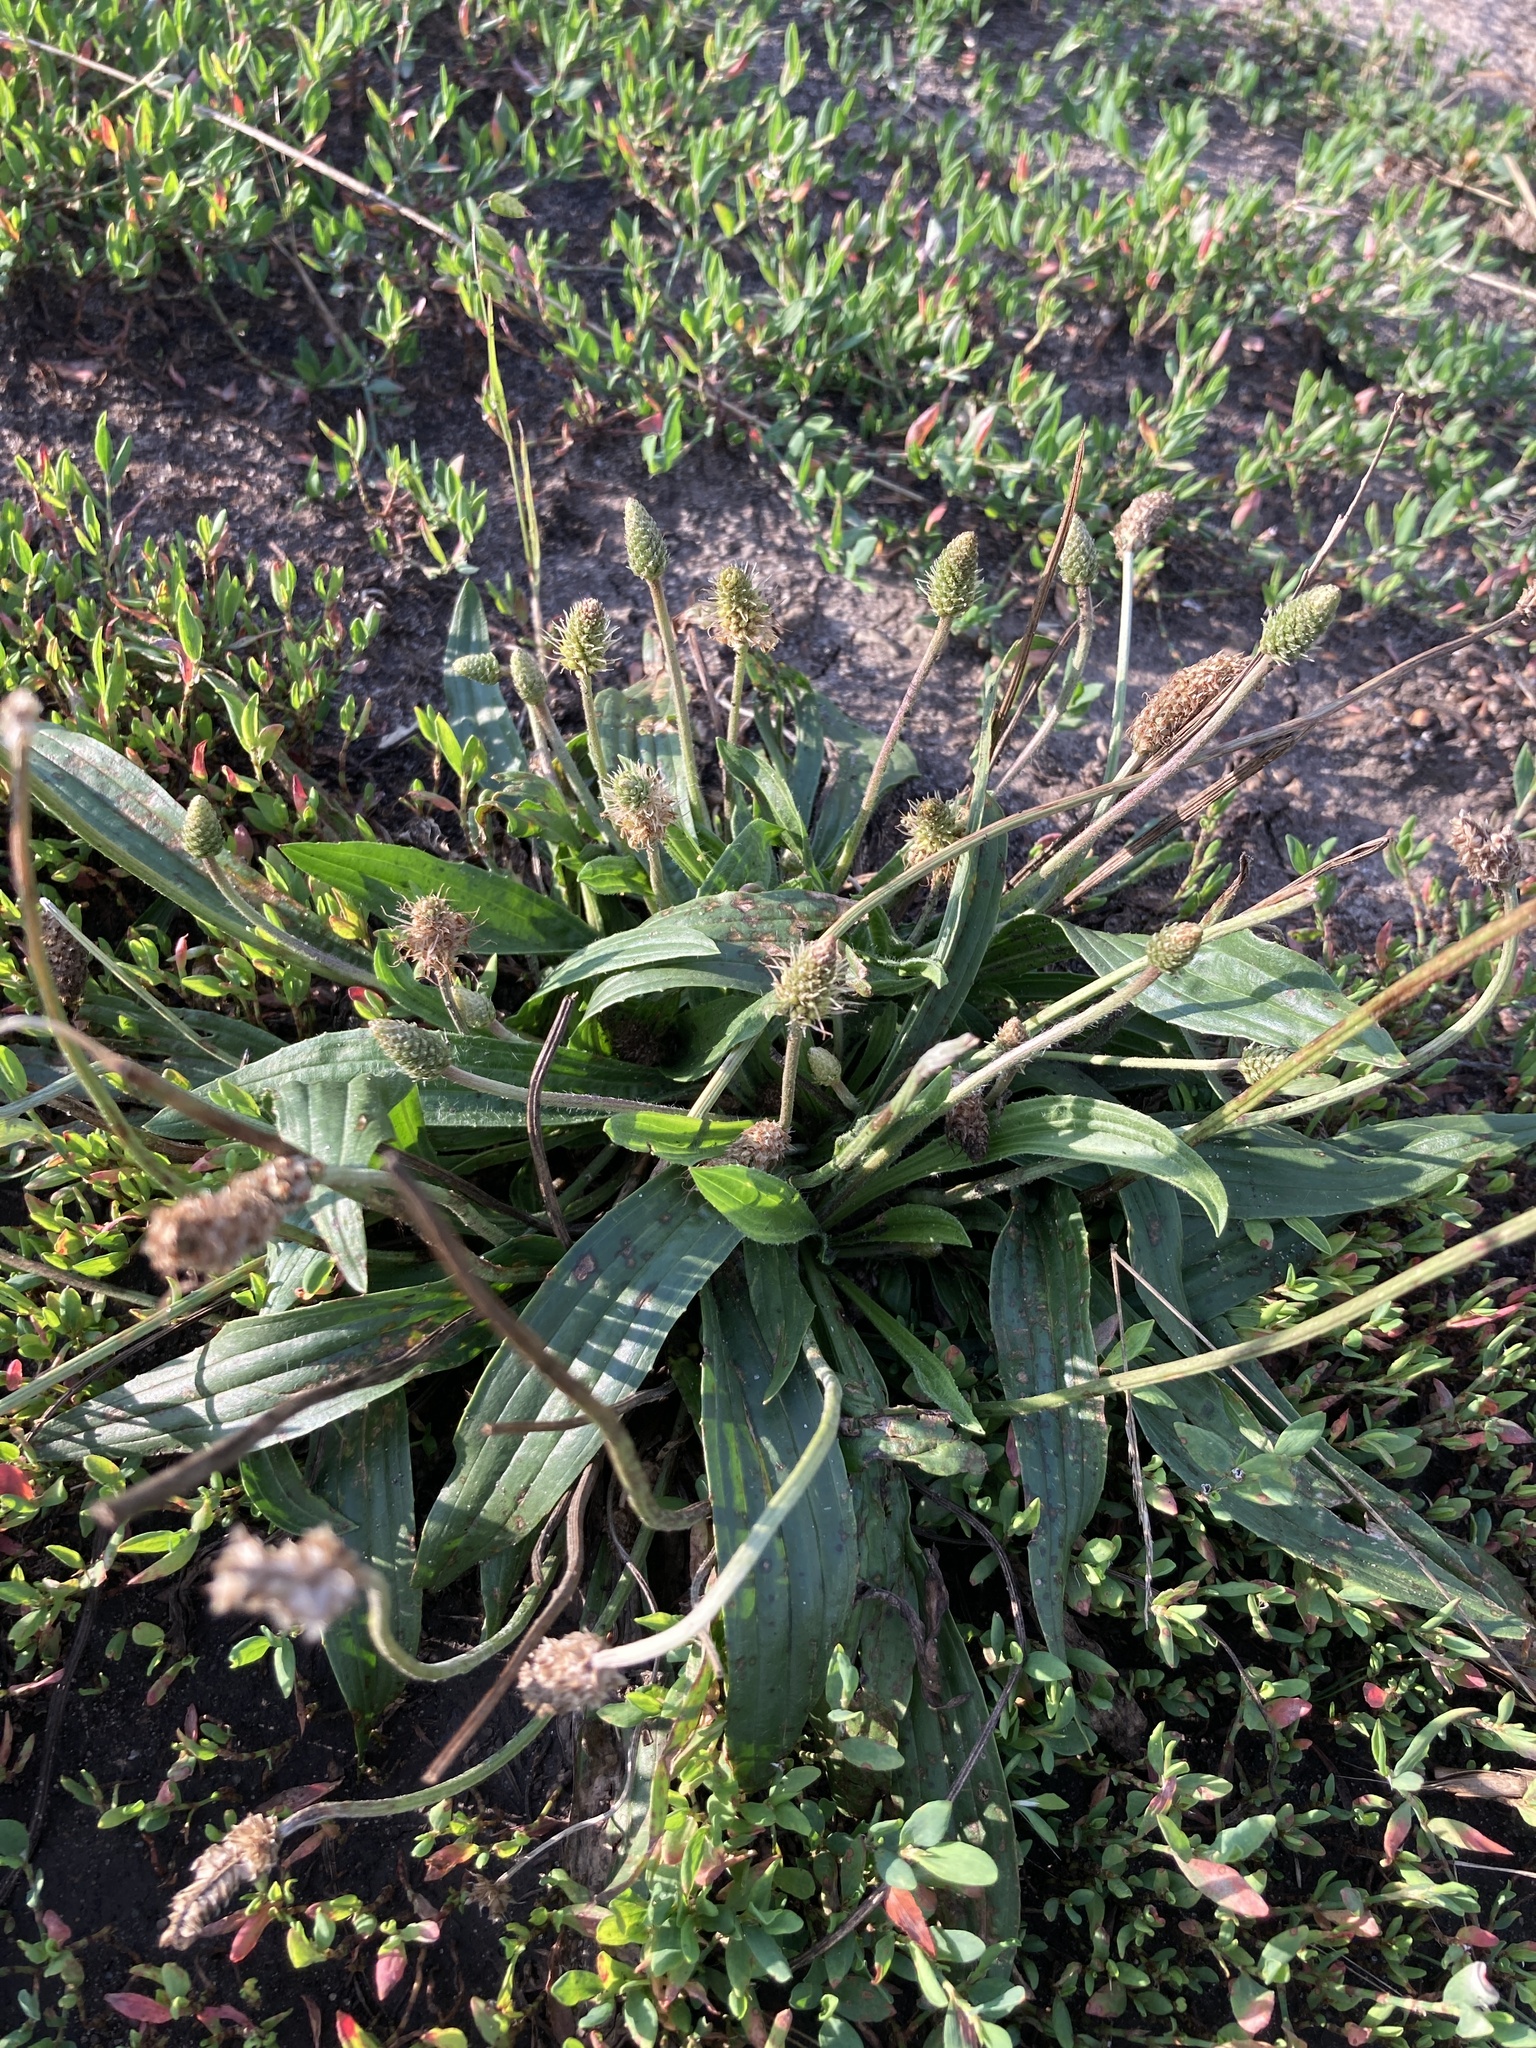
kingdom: Plantae
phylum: Tracheophyta
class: Magnoliopsida
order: Lamiales
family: Plantaginaceae
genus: Plantago
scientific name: Plantago lanceolata
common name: Ribwort plantain
